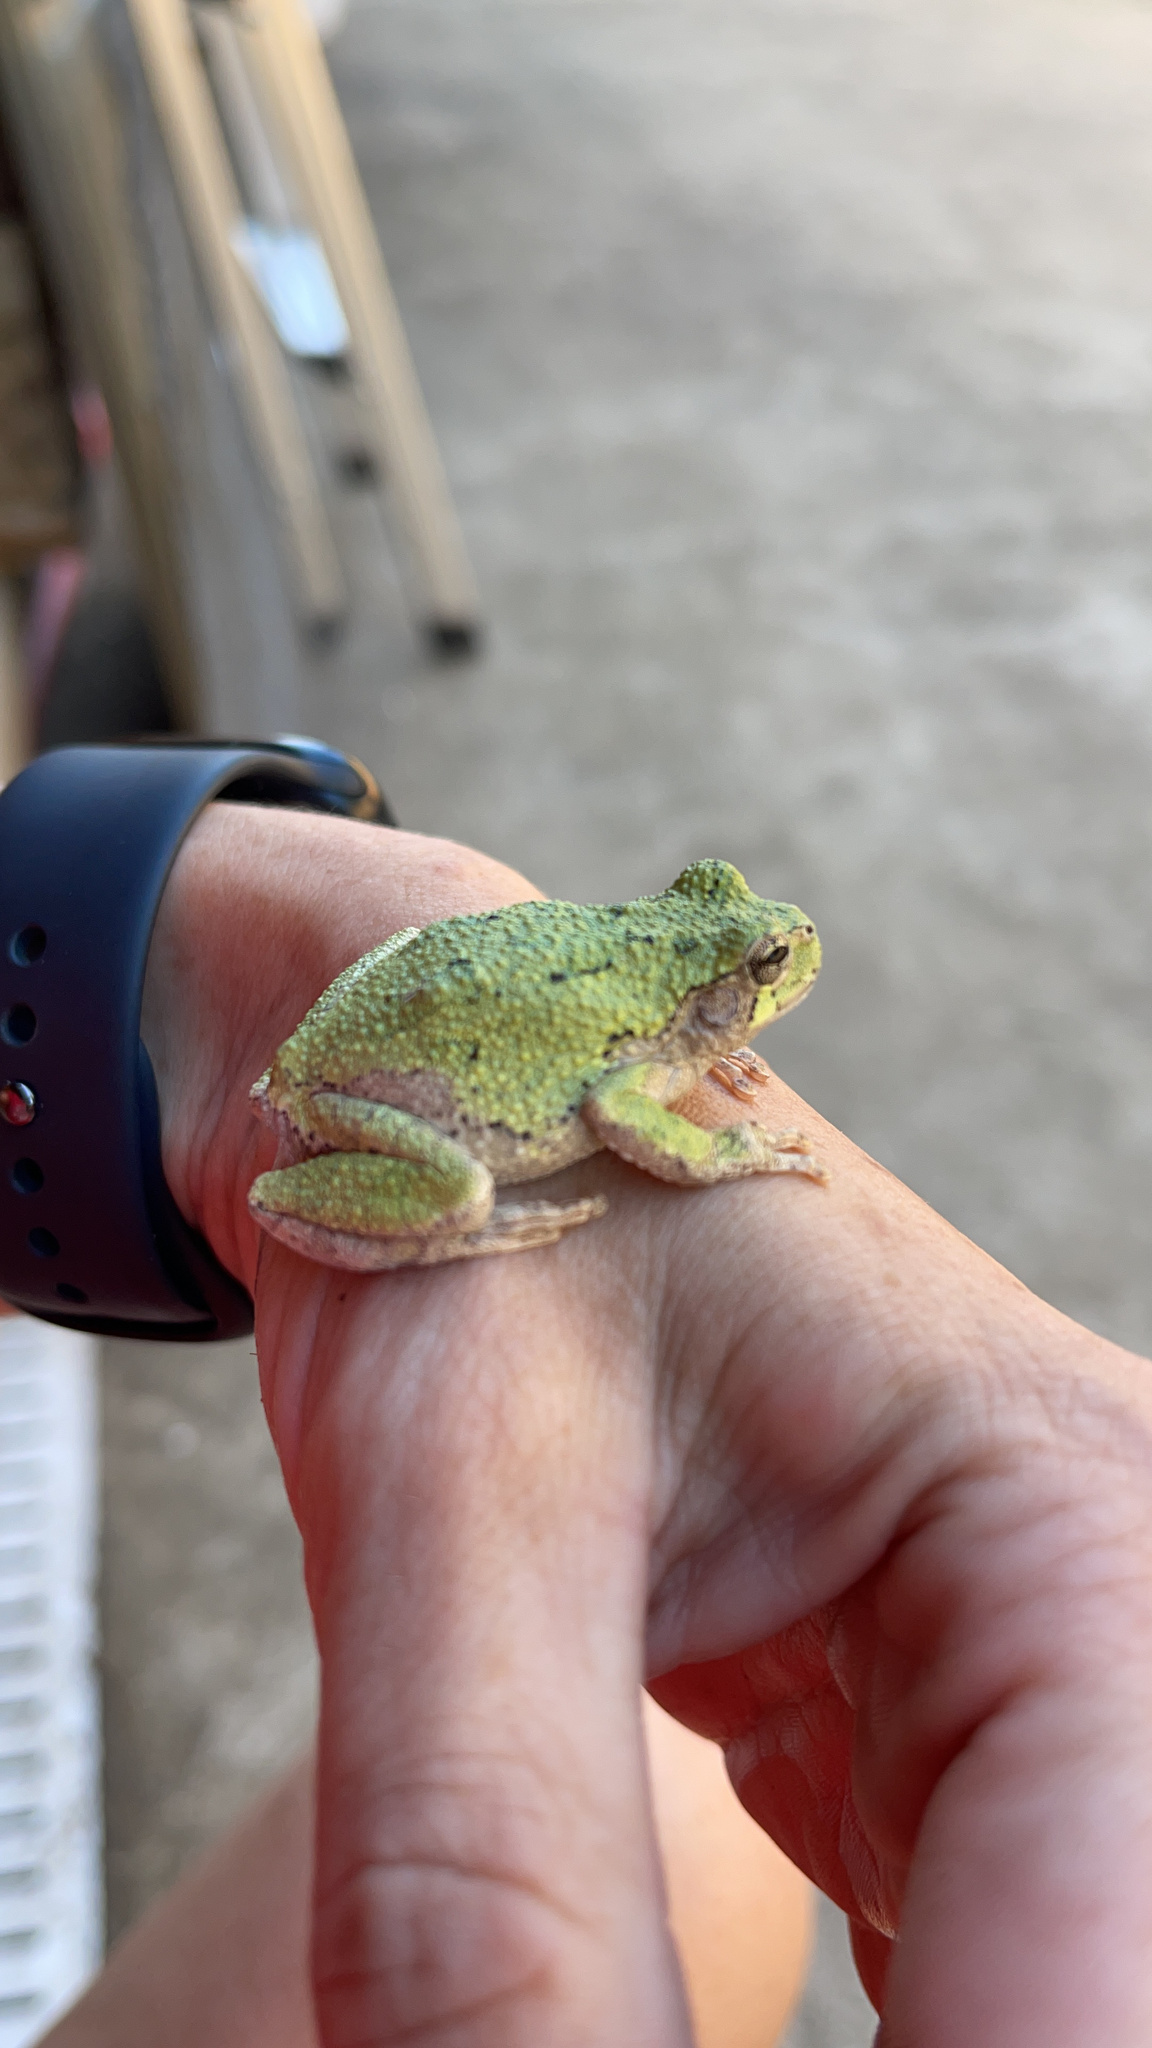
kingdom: Animalia
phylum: Chordata
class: Amphibia
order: Anura
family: Hylidae
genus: Dryophytes
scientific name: Dryophytes chrysoscelis
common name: Cope's gray treefrog
